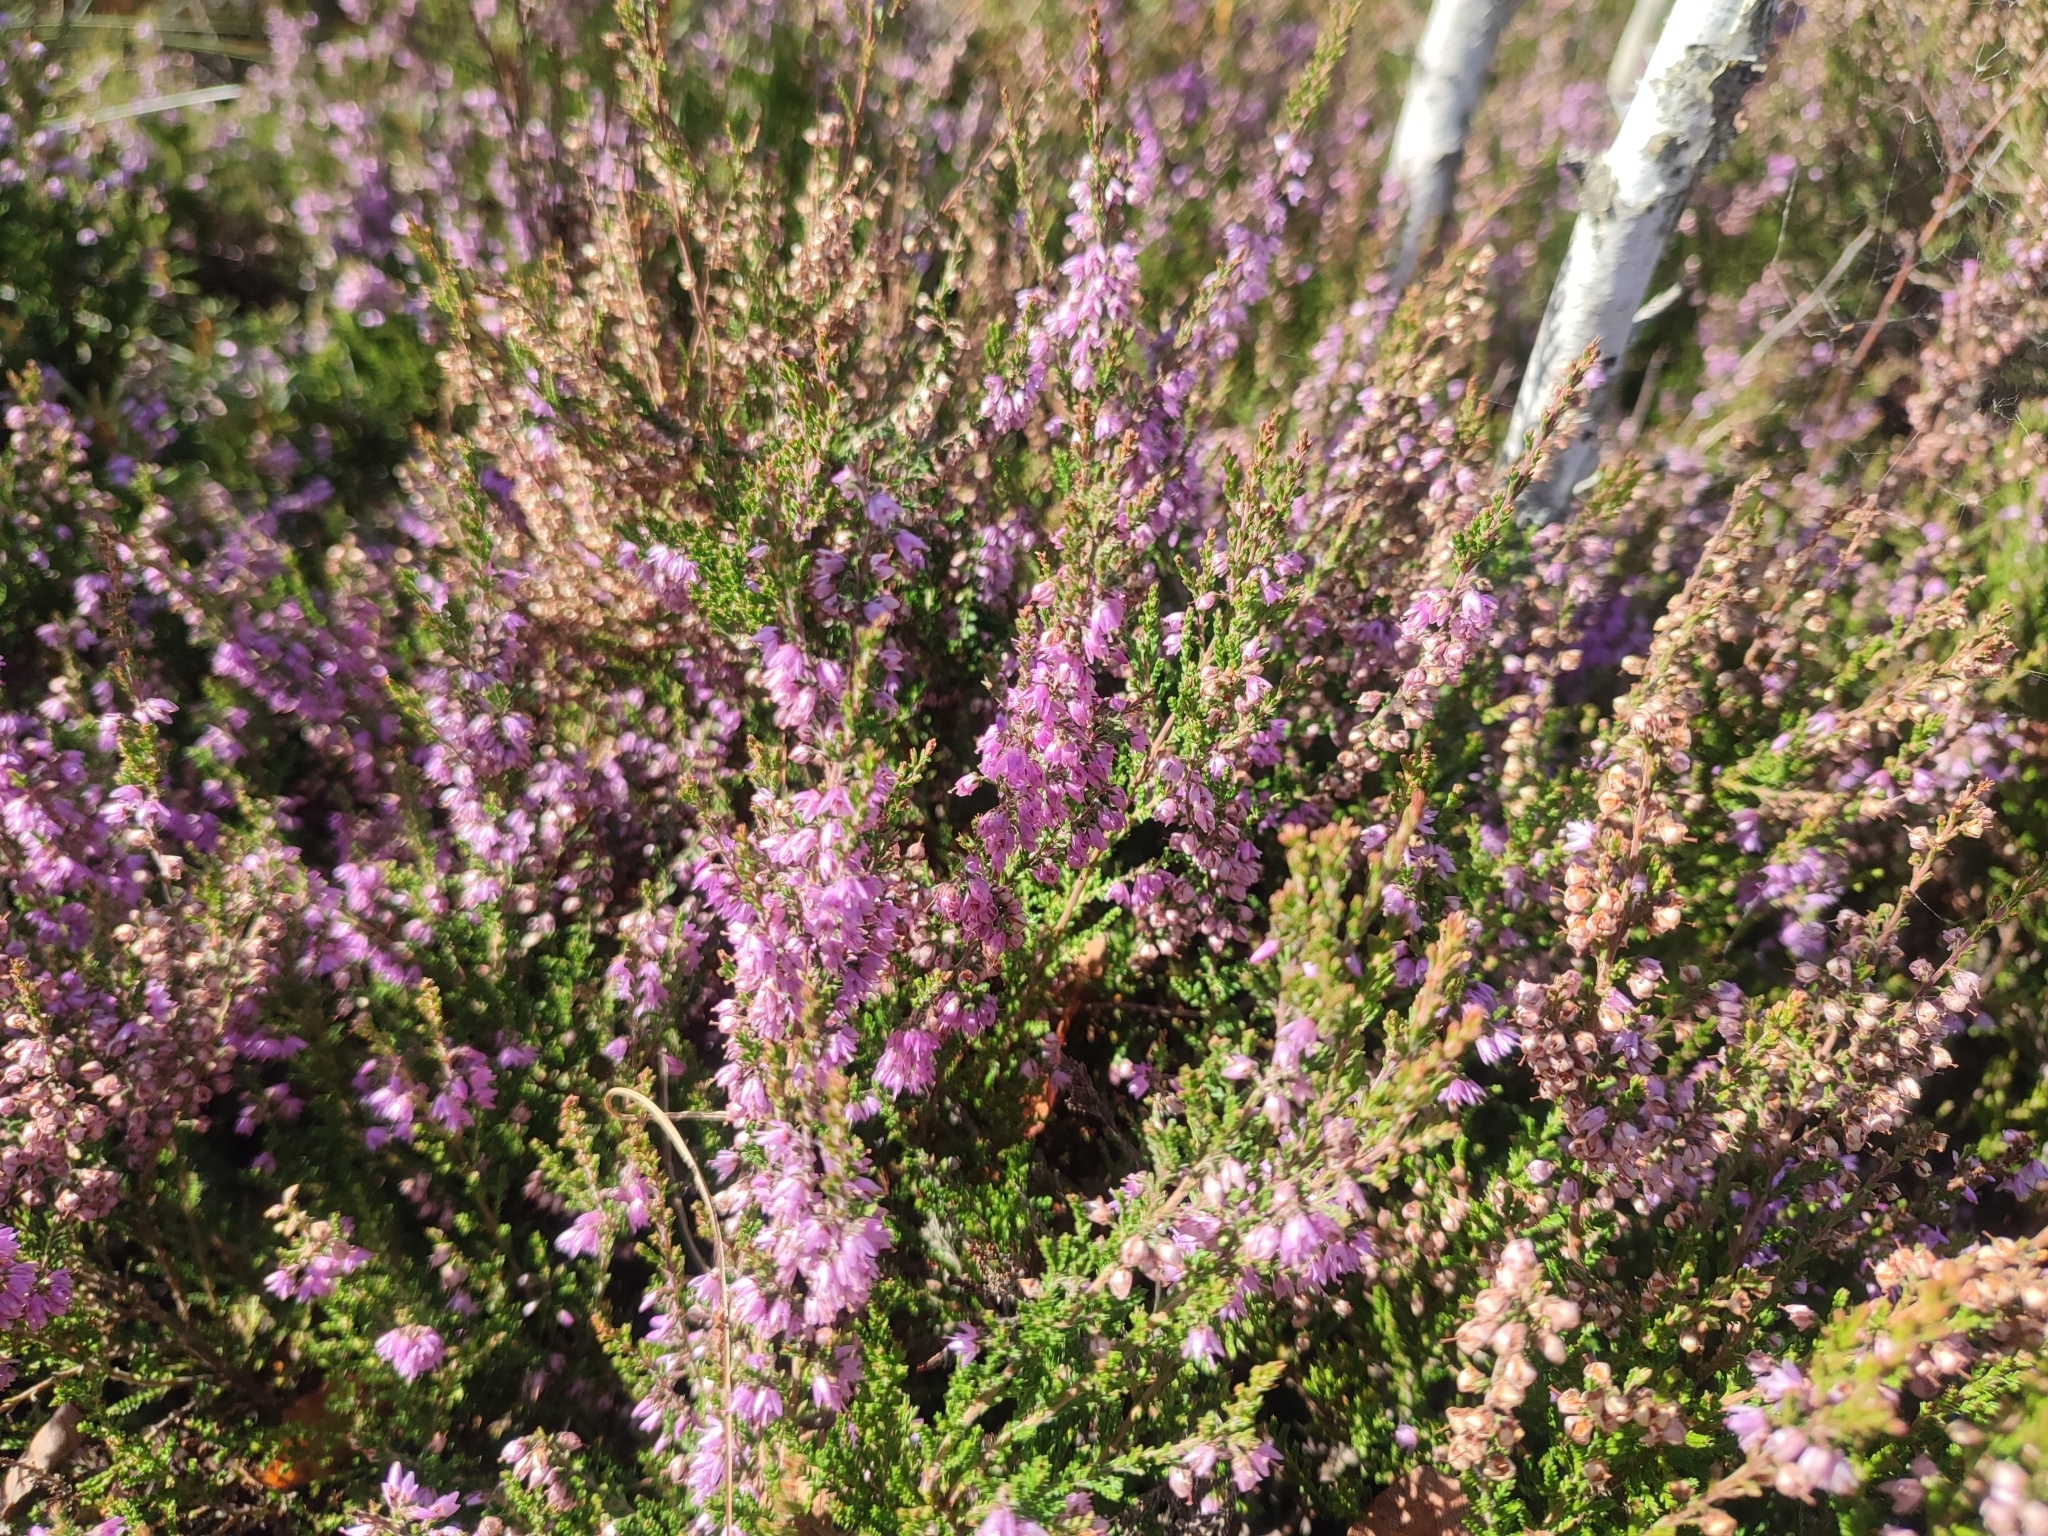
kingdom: Plantae
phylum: Tracheophyta
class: Magnoliopsida
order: Ericales
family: Ericaceae
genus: Calluna
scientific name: Calluna vulgaris
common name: Heather
